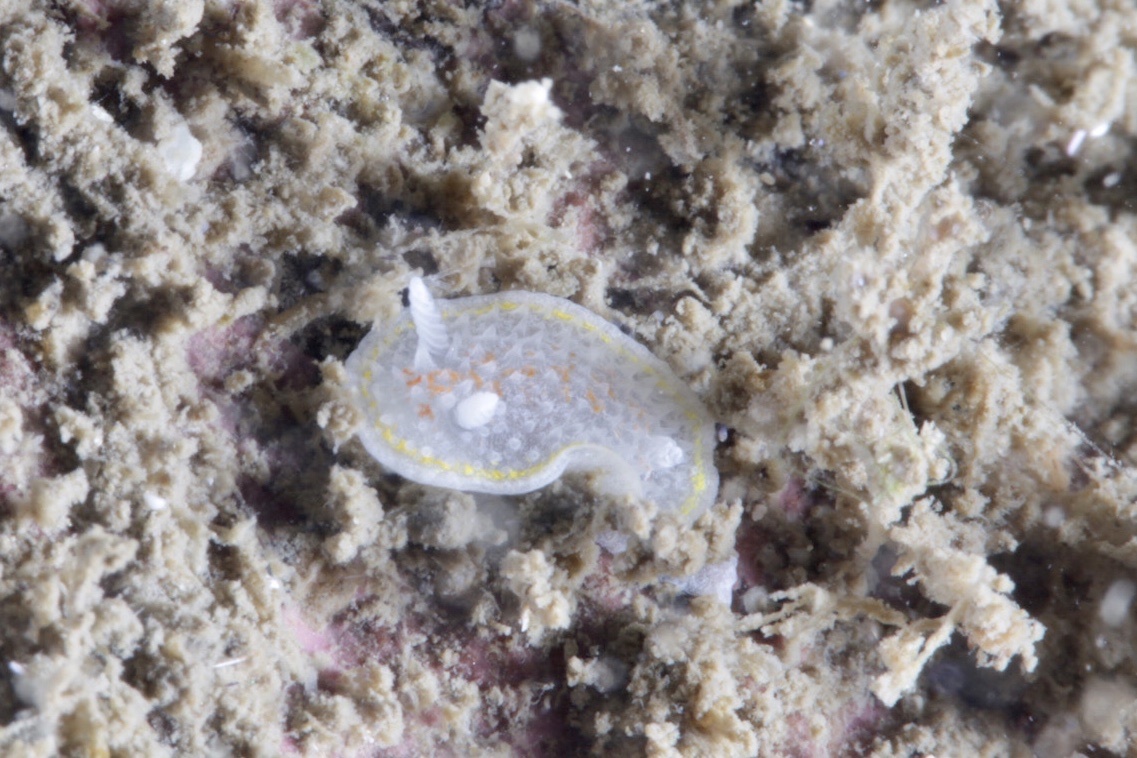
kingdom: Animalia
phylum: Mollusca
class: Gastropoda
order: Nudibranchia
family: Calycidorididae
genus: Diaphorodoris
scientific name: Diaphorodoris luteocincta
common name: Fried egg nudibranch
